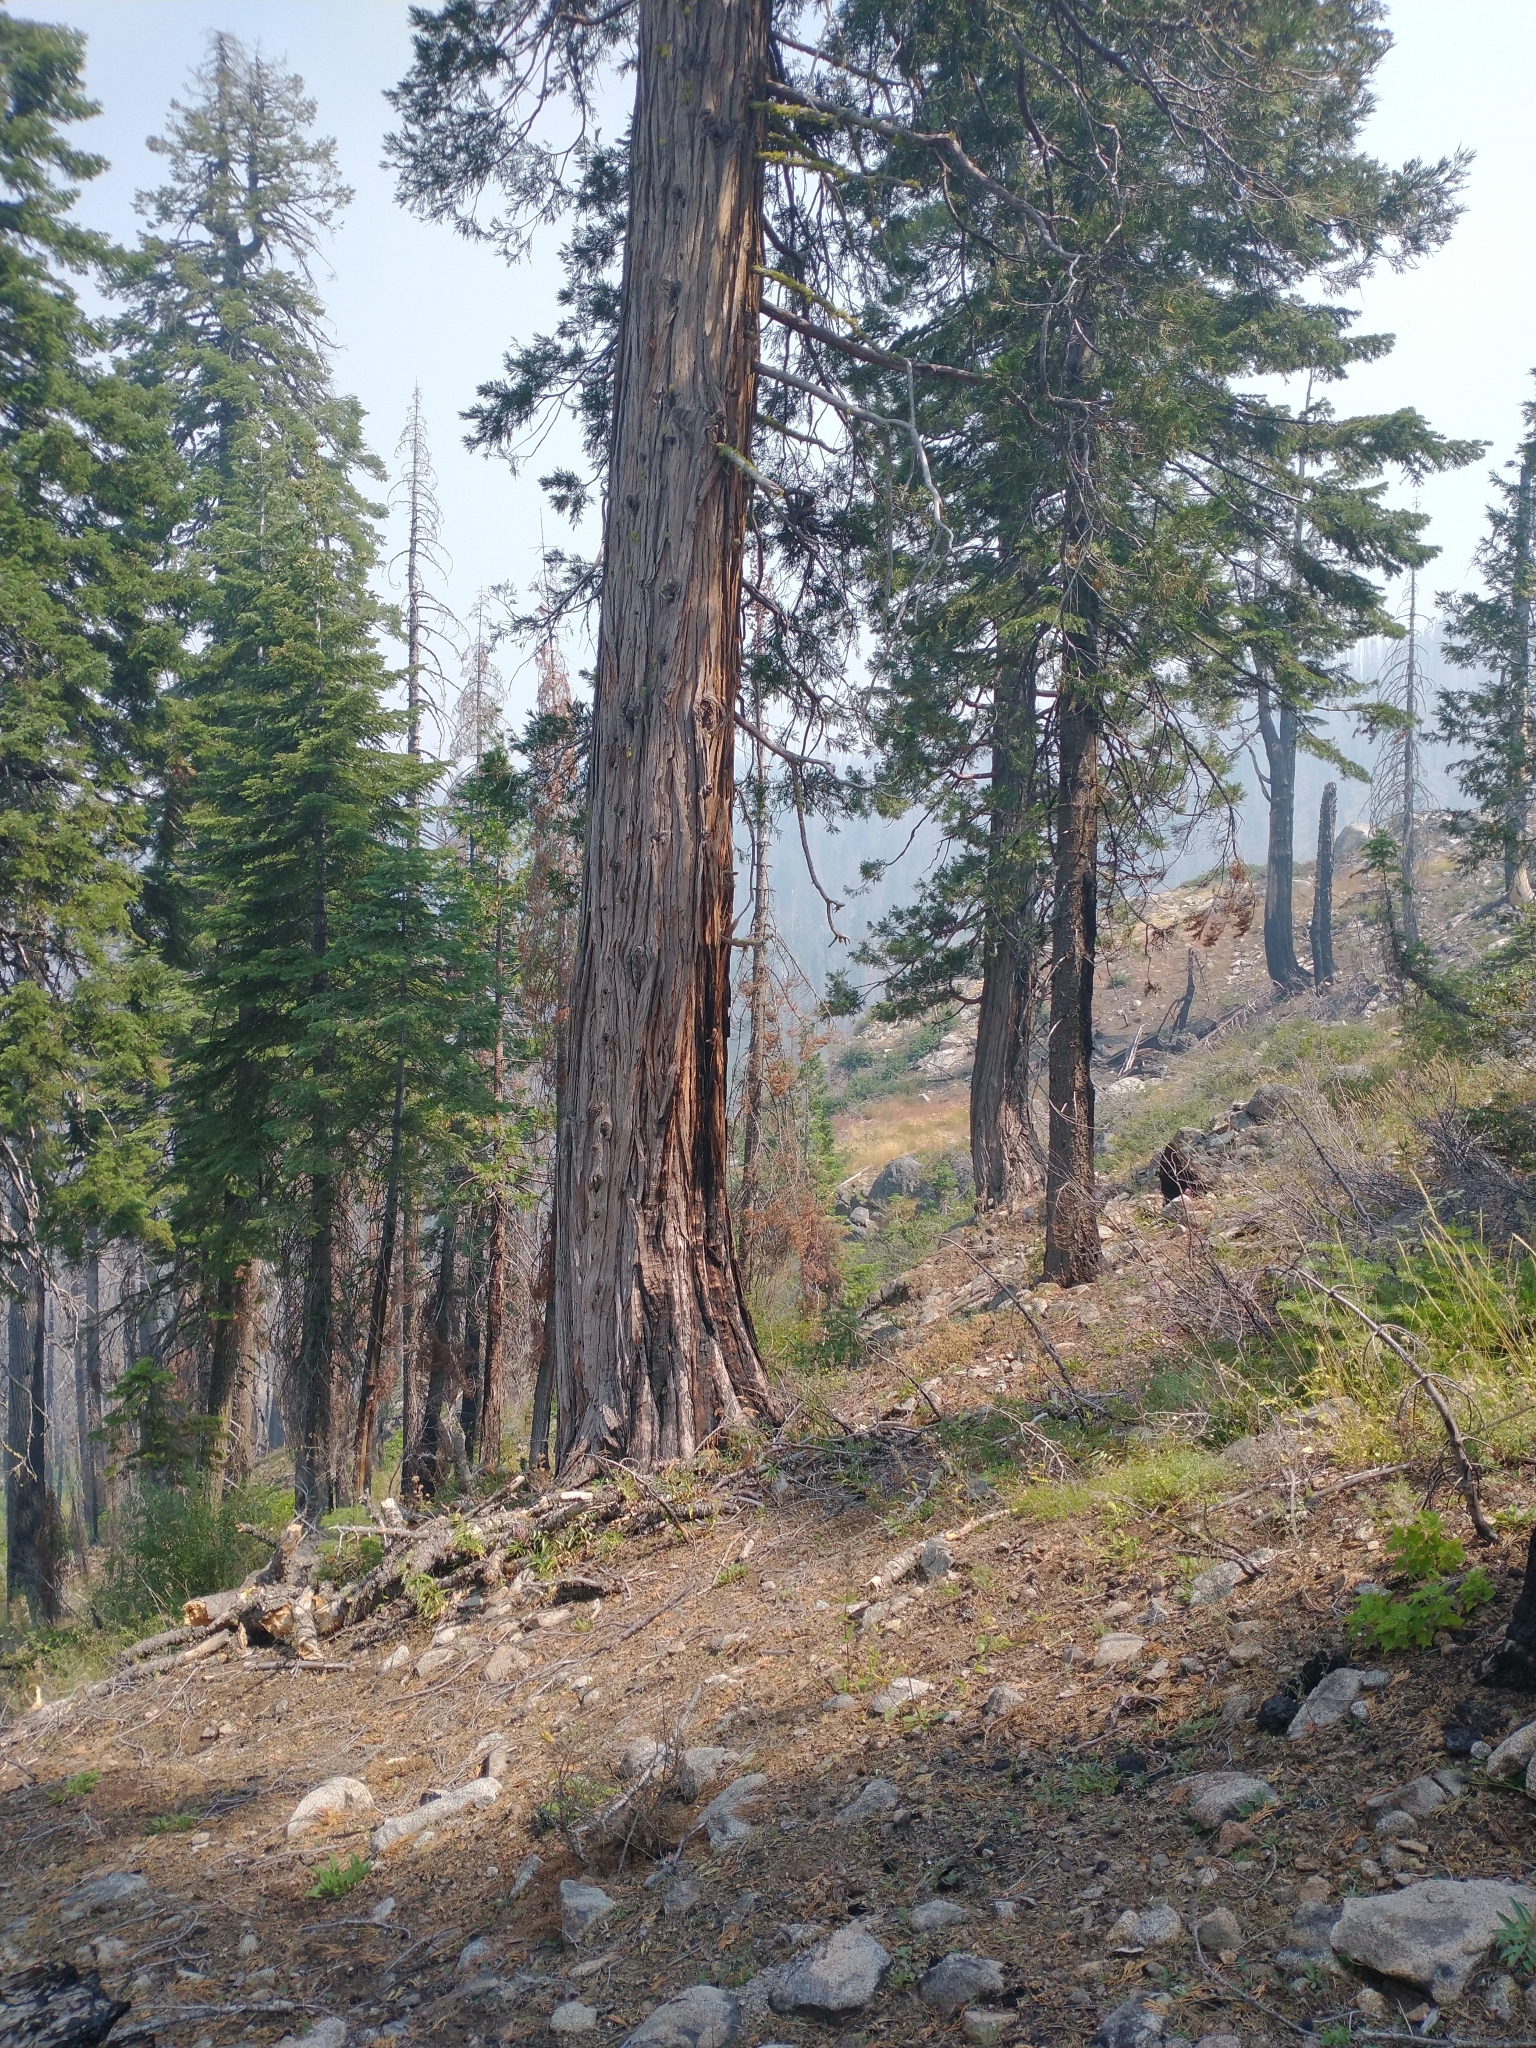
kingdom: Plantae
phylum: Tracheophyta
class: Pinopsida
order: Pinales
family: Cupressaceae
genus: Calocedrus
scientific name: Calocedrus decurrens
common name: Californian incense-cedar
